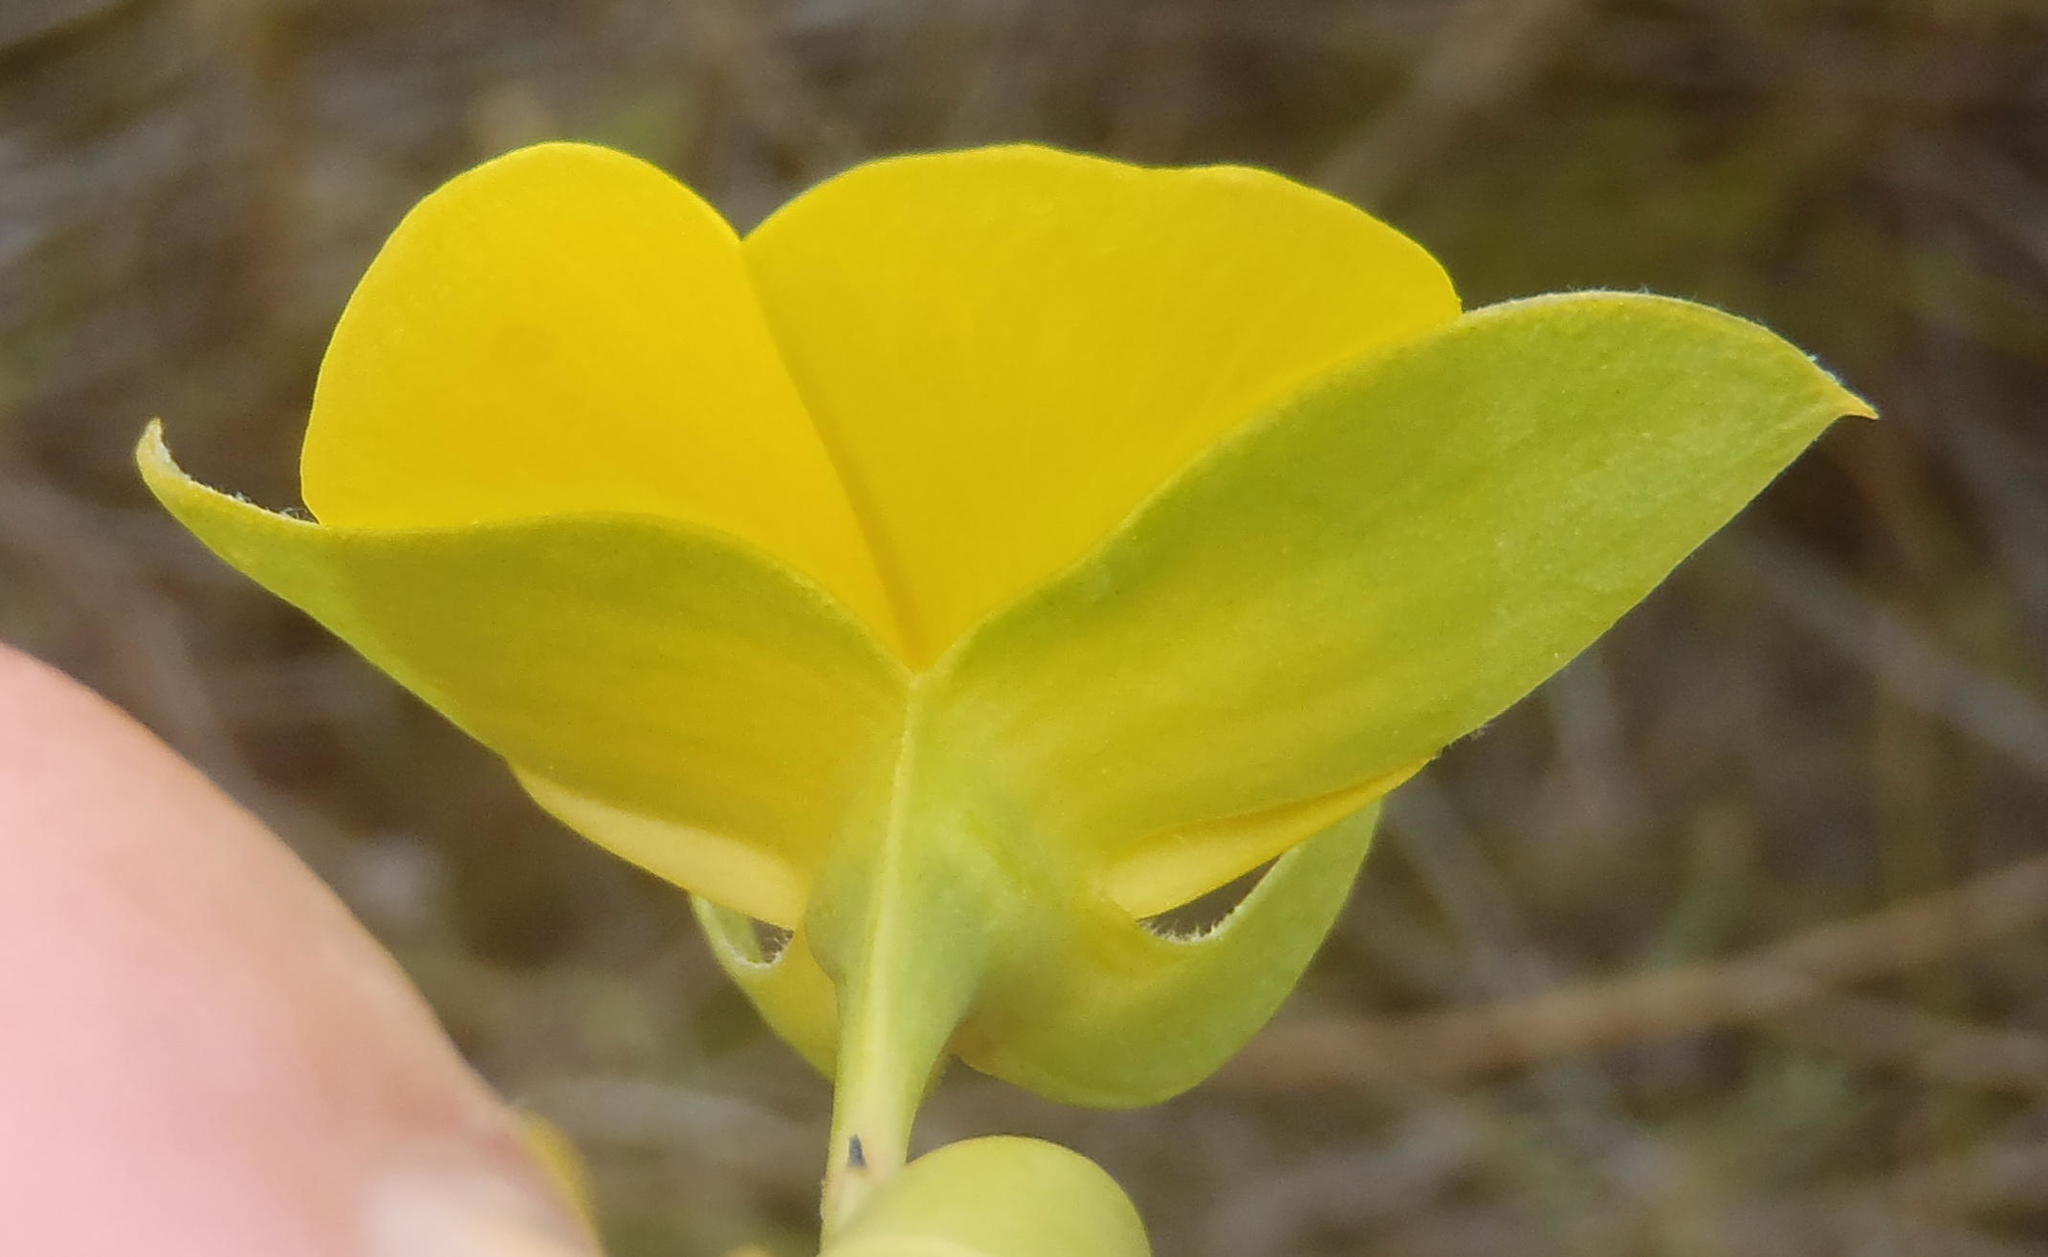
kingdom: Plantae
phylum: Tracheophyta
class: Magnoliopsida
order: Fabales
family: Fabaceae
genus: Rafnia
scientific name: Rafnia vlokii
